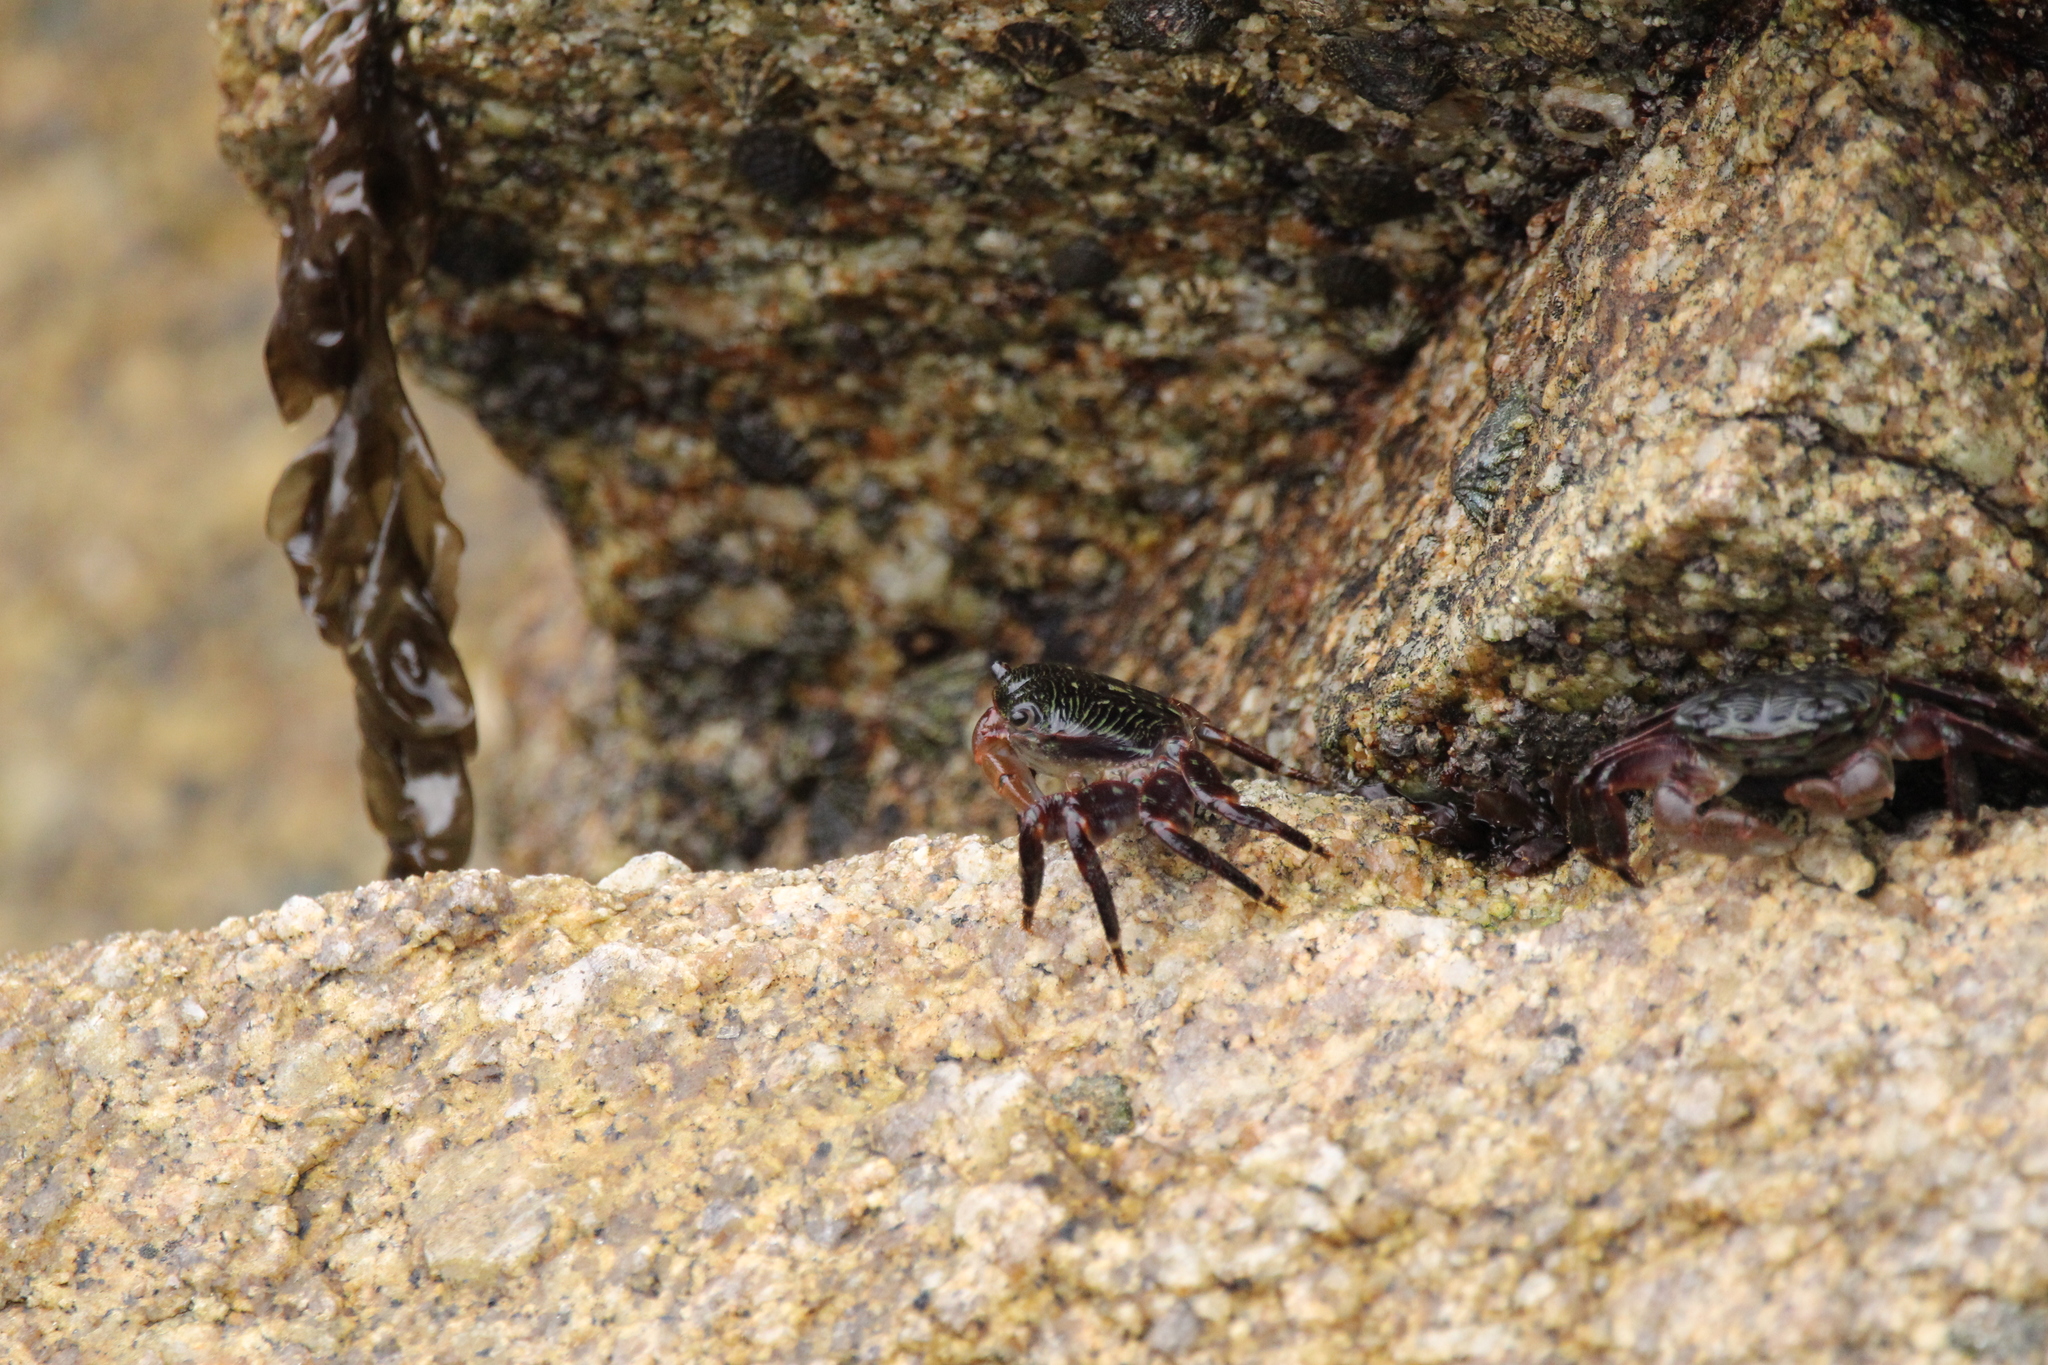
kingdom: Animalia
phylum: Arthropoda
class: Malacostraca
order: Decapoda
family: Grapsidae
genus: Pachygrapsus
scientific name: Pachygrapsus crassipes
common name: Striped shore crab
